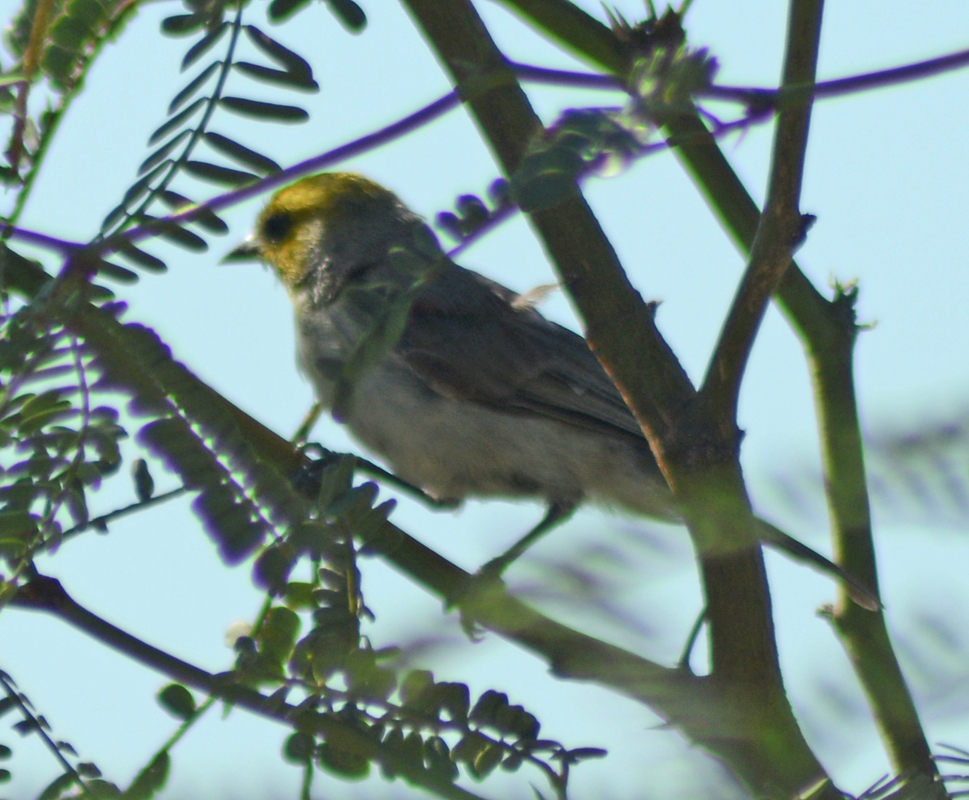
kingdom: Animalia
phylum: Chordata
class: Aves
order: Passeriformes
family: Remizidae
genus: Auriparus
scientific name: Auriparus flaviceps
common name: Verdin
